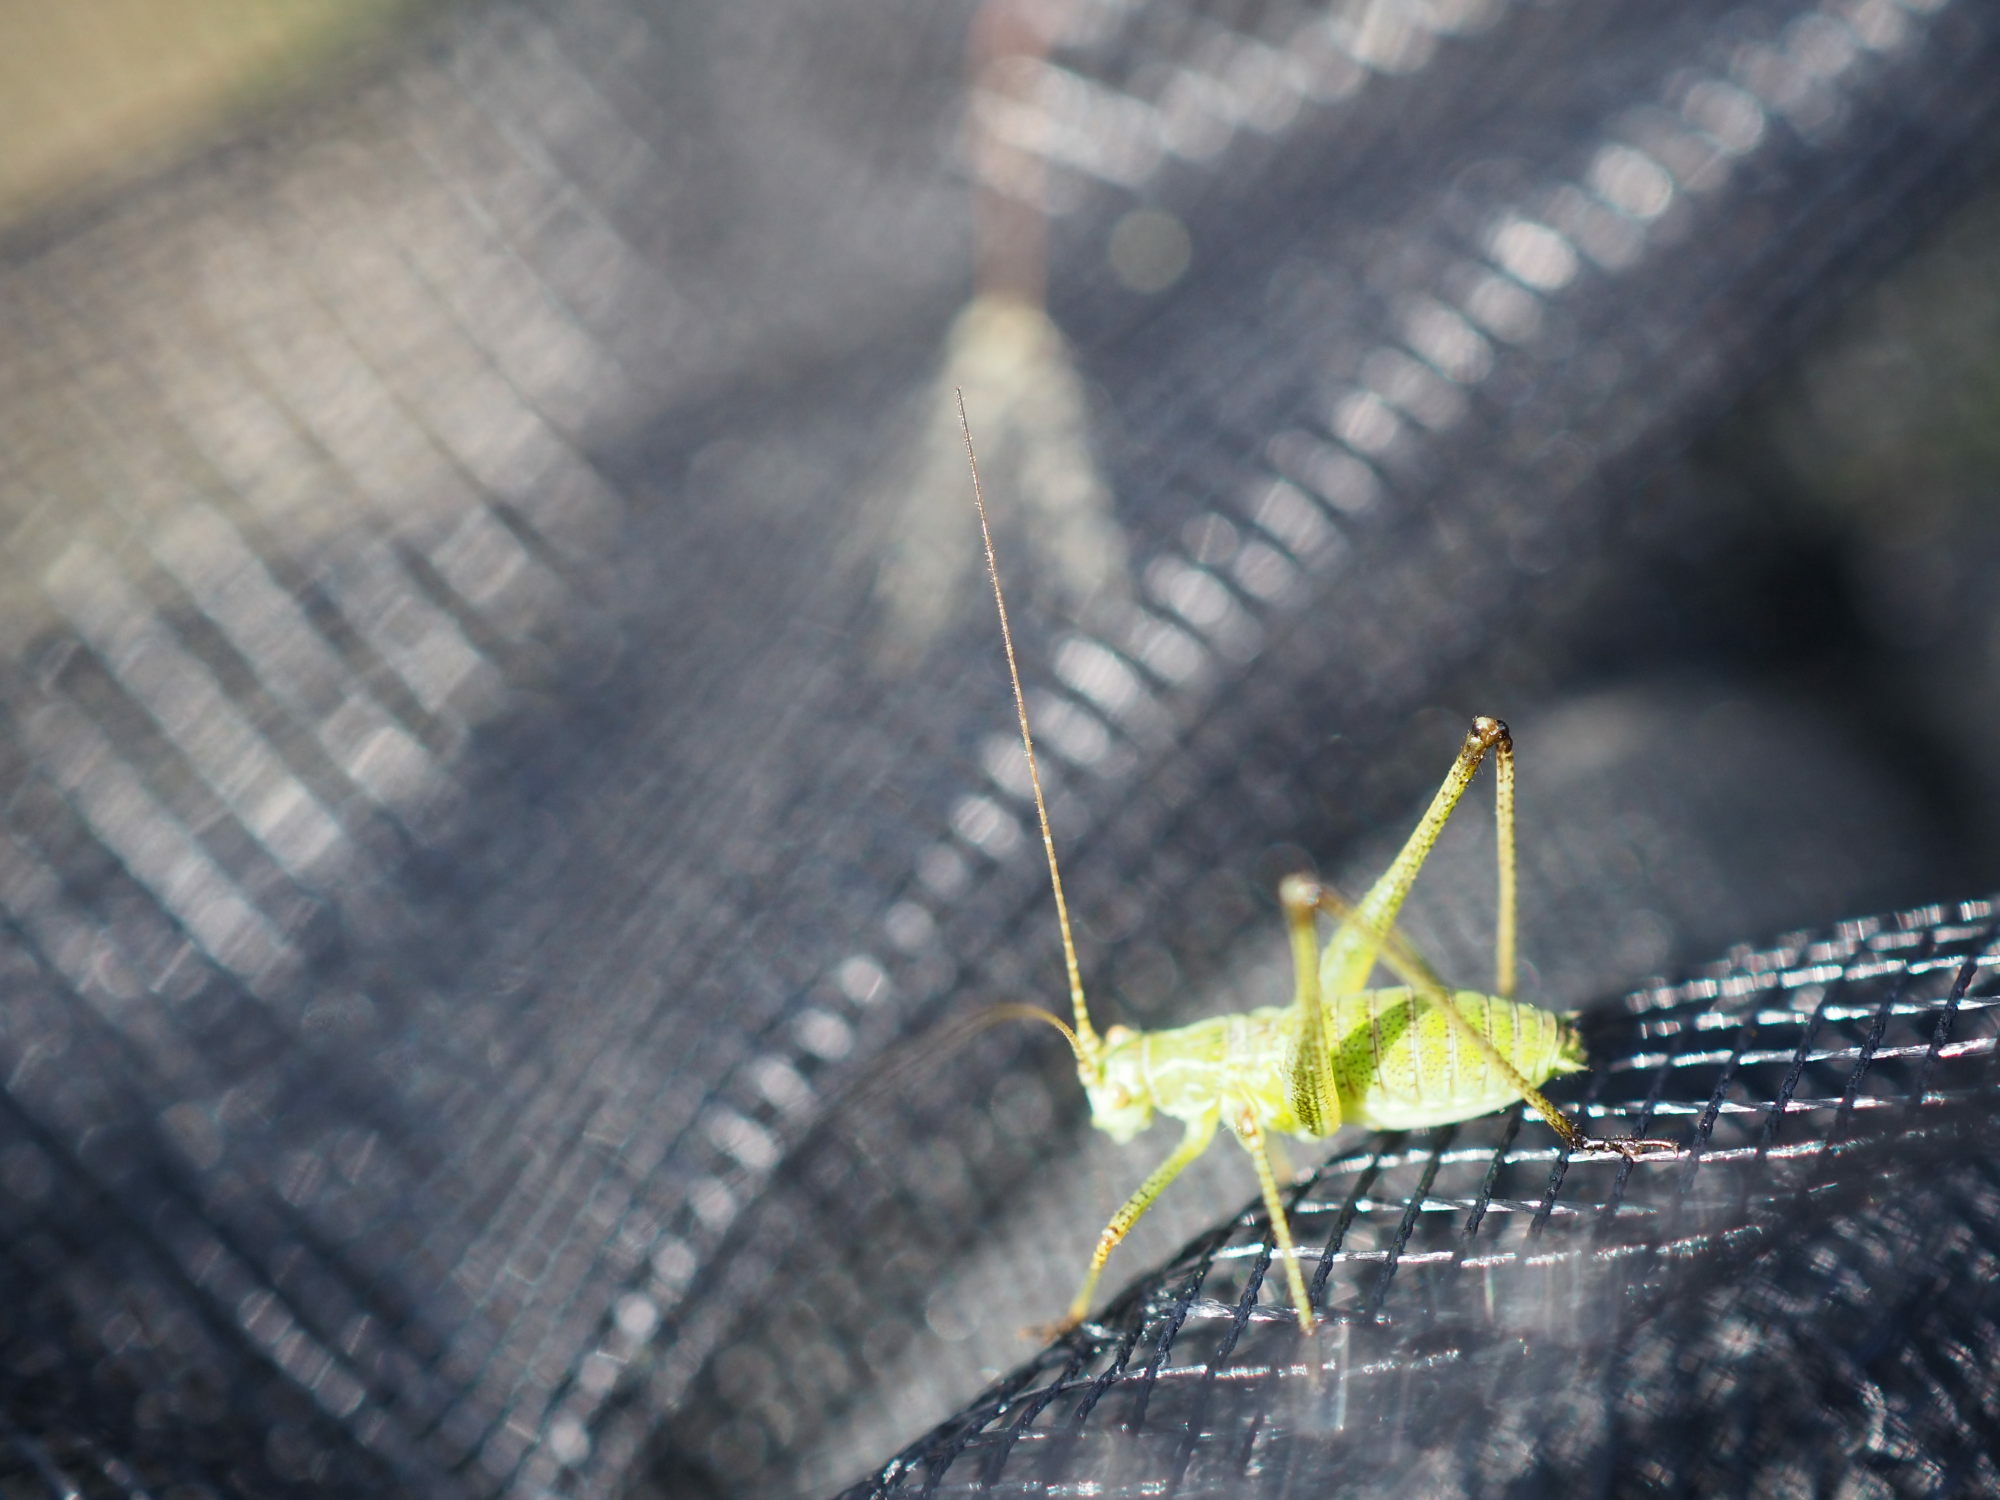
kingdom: Animalia
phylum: Arthropoda
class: Insecta
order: Orthoptera
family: Tettigoniidae
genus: Phaneroptera
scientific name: Phaneroptera falcata
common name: Sickle-bearing bush-cricket
